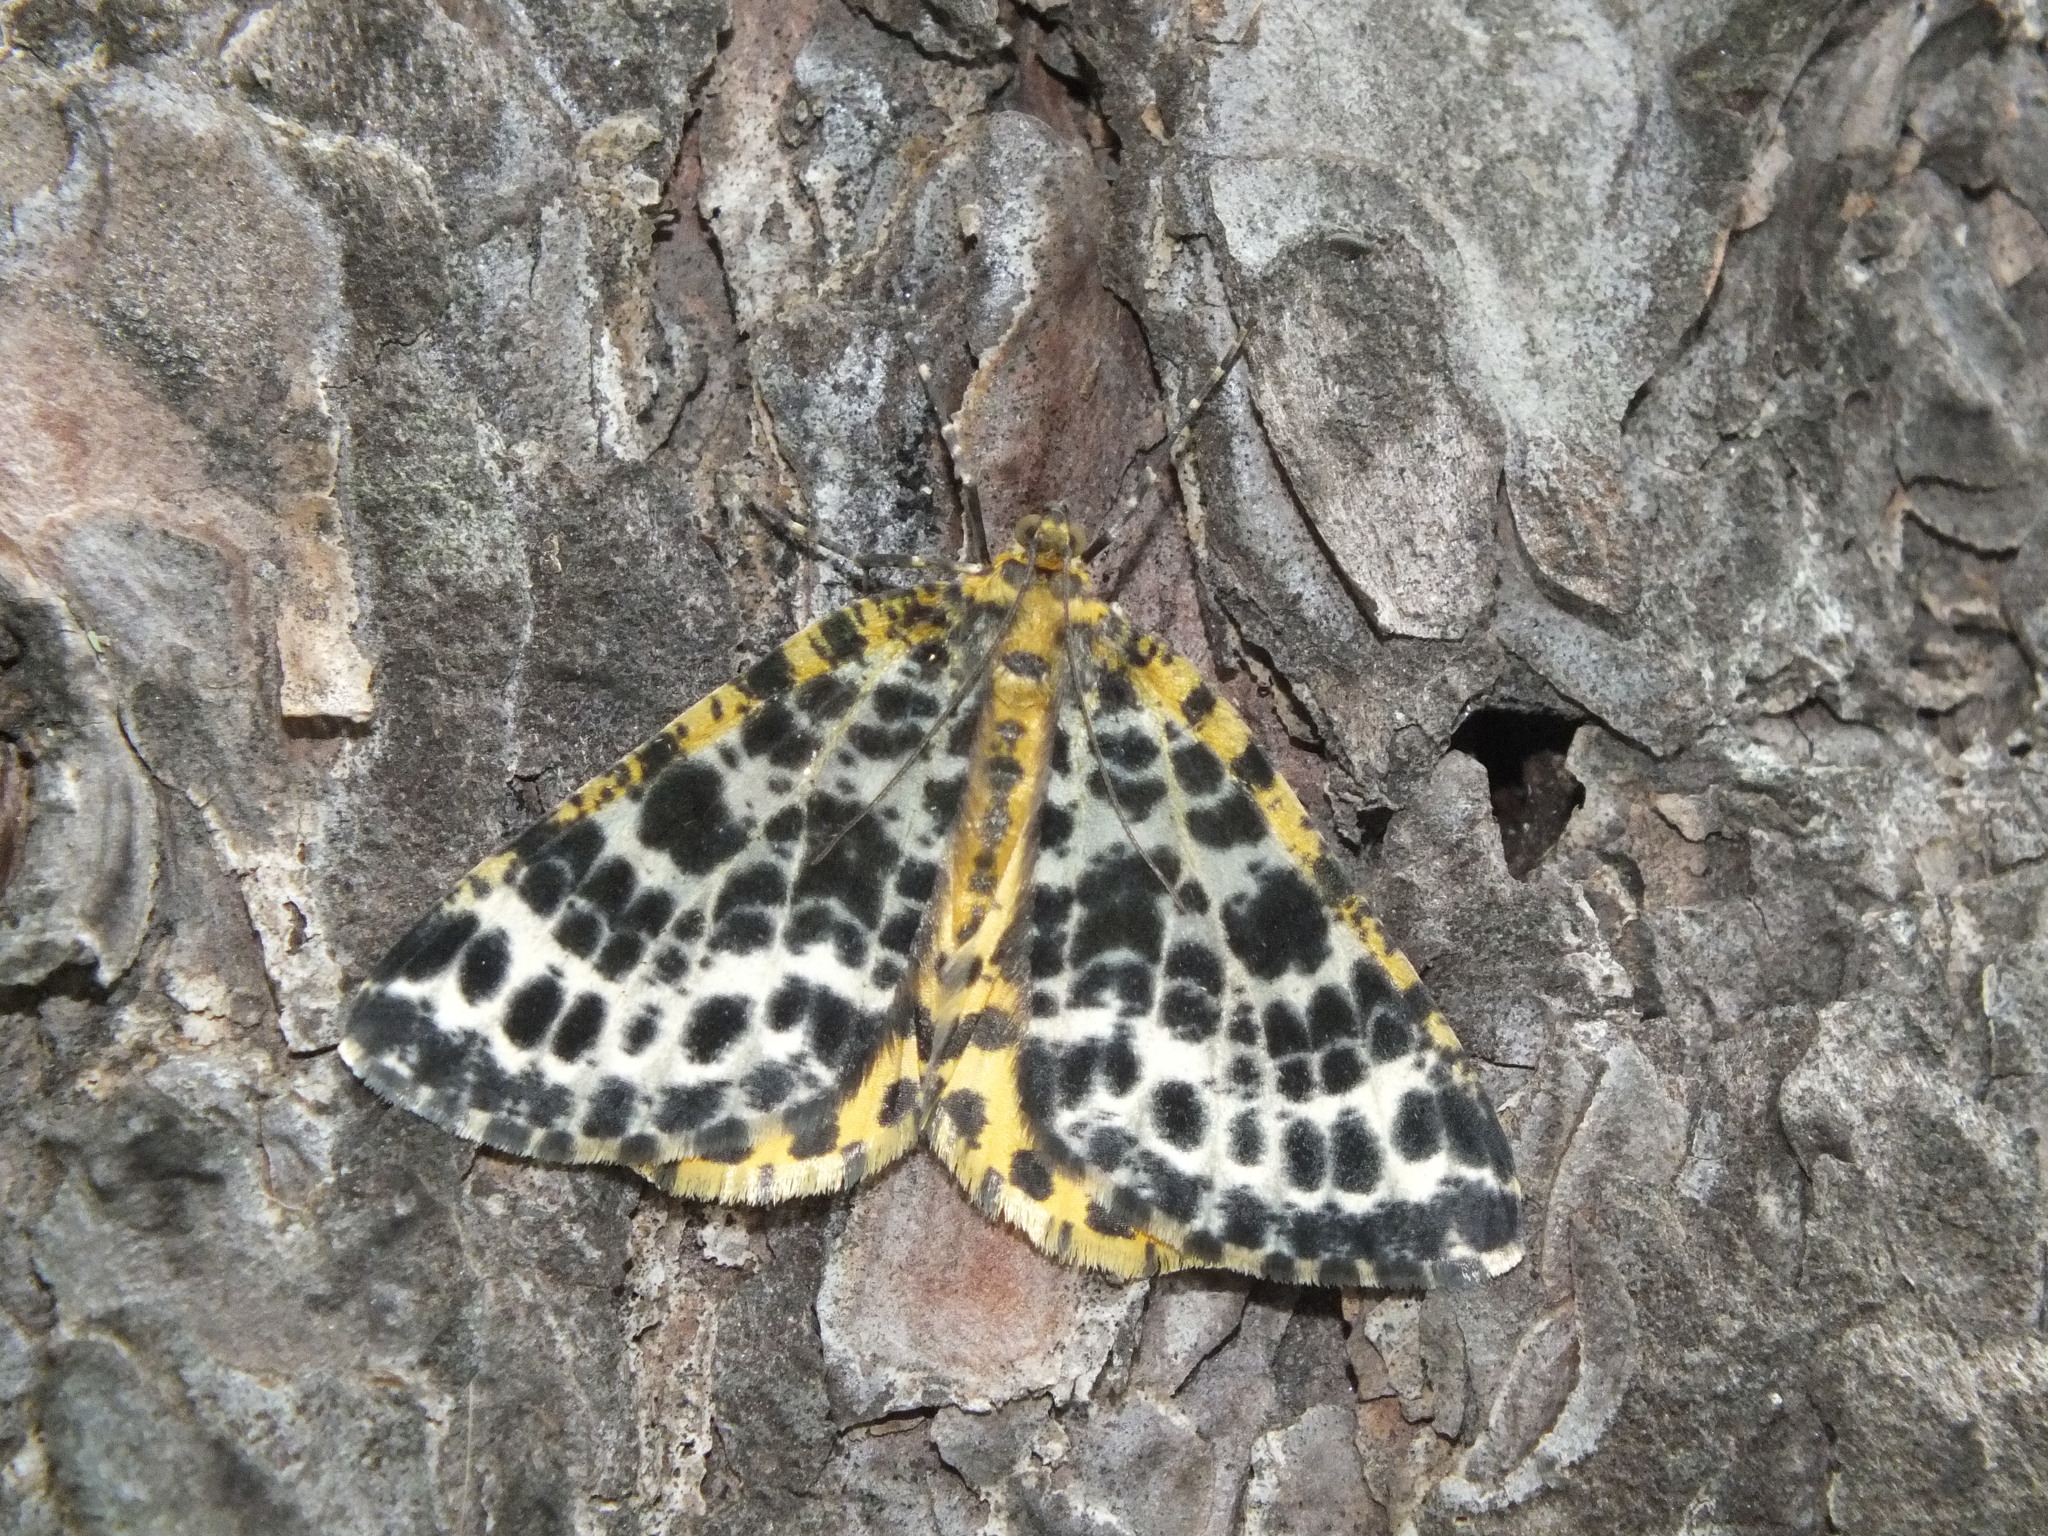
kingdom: Animalia
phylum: Arthropoda
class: Insecta
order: Lepidoptera
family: Geometridae
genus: Arichanna
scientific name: Arichanna melanaria
